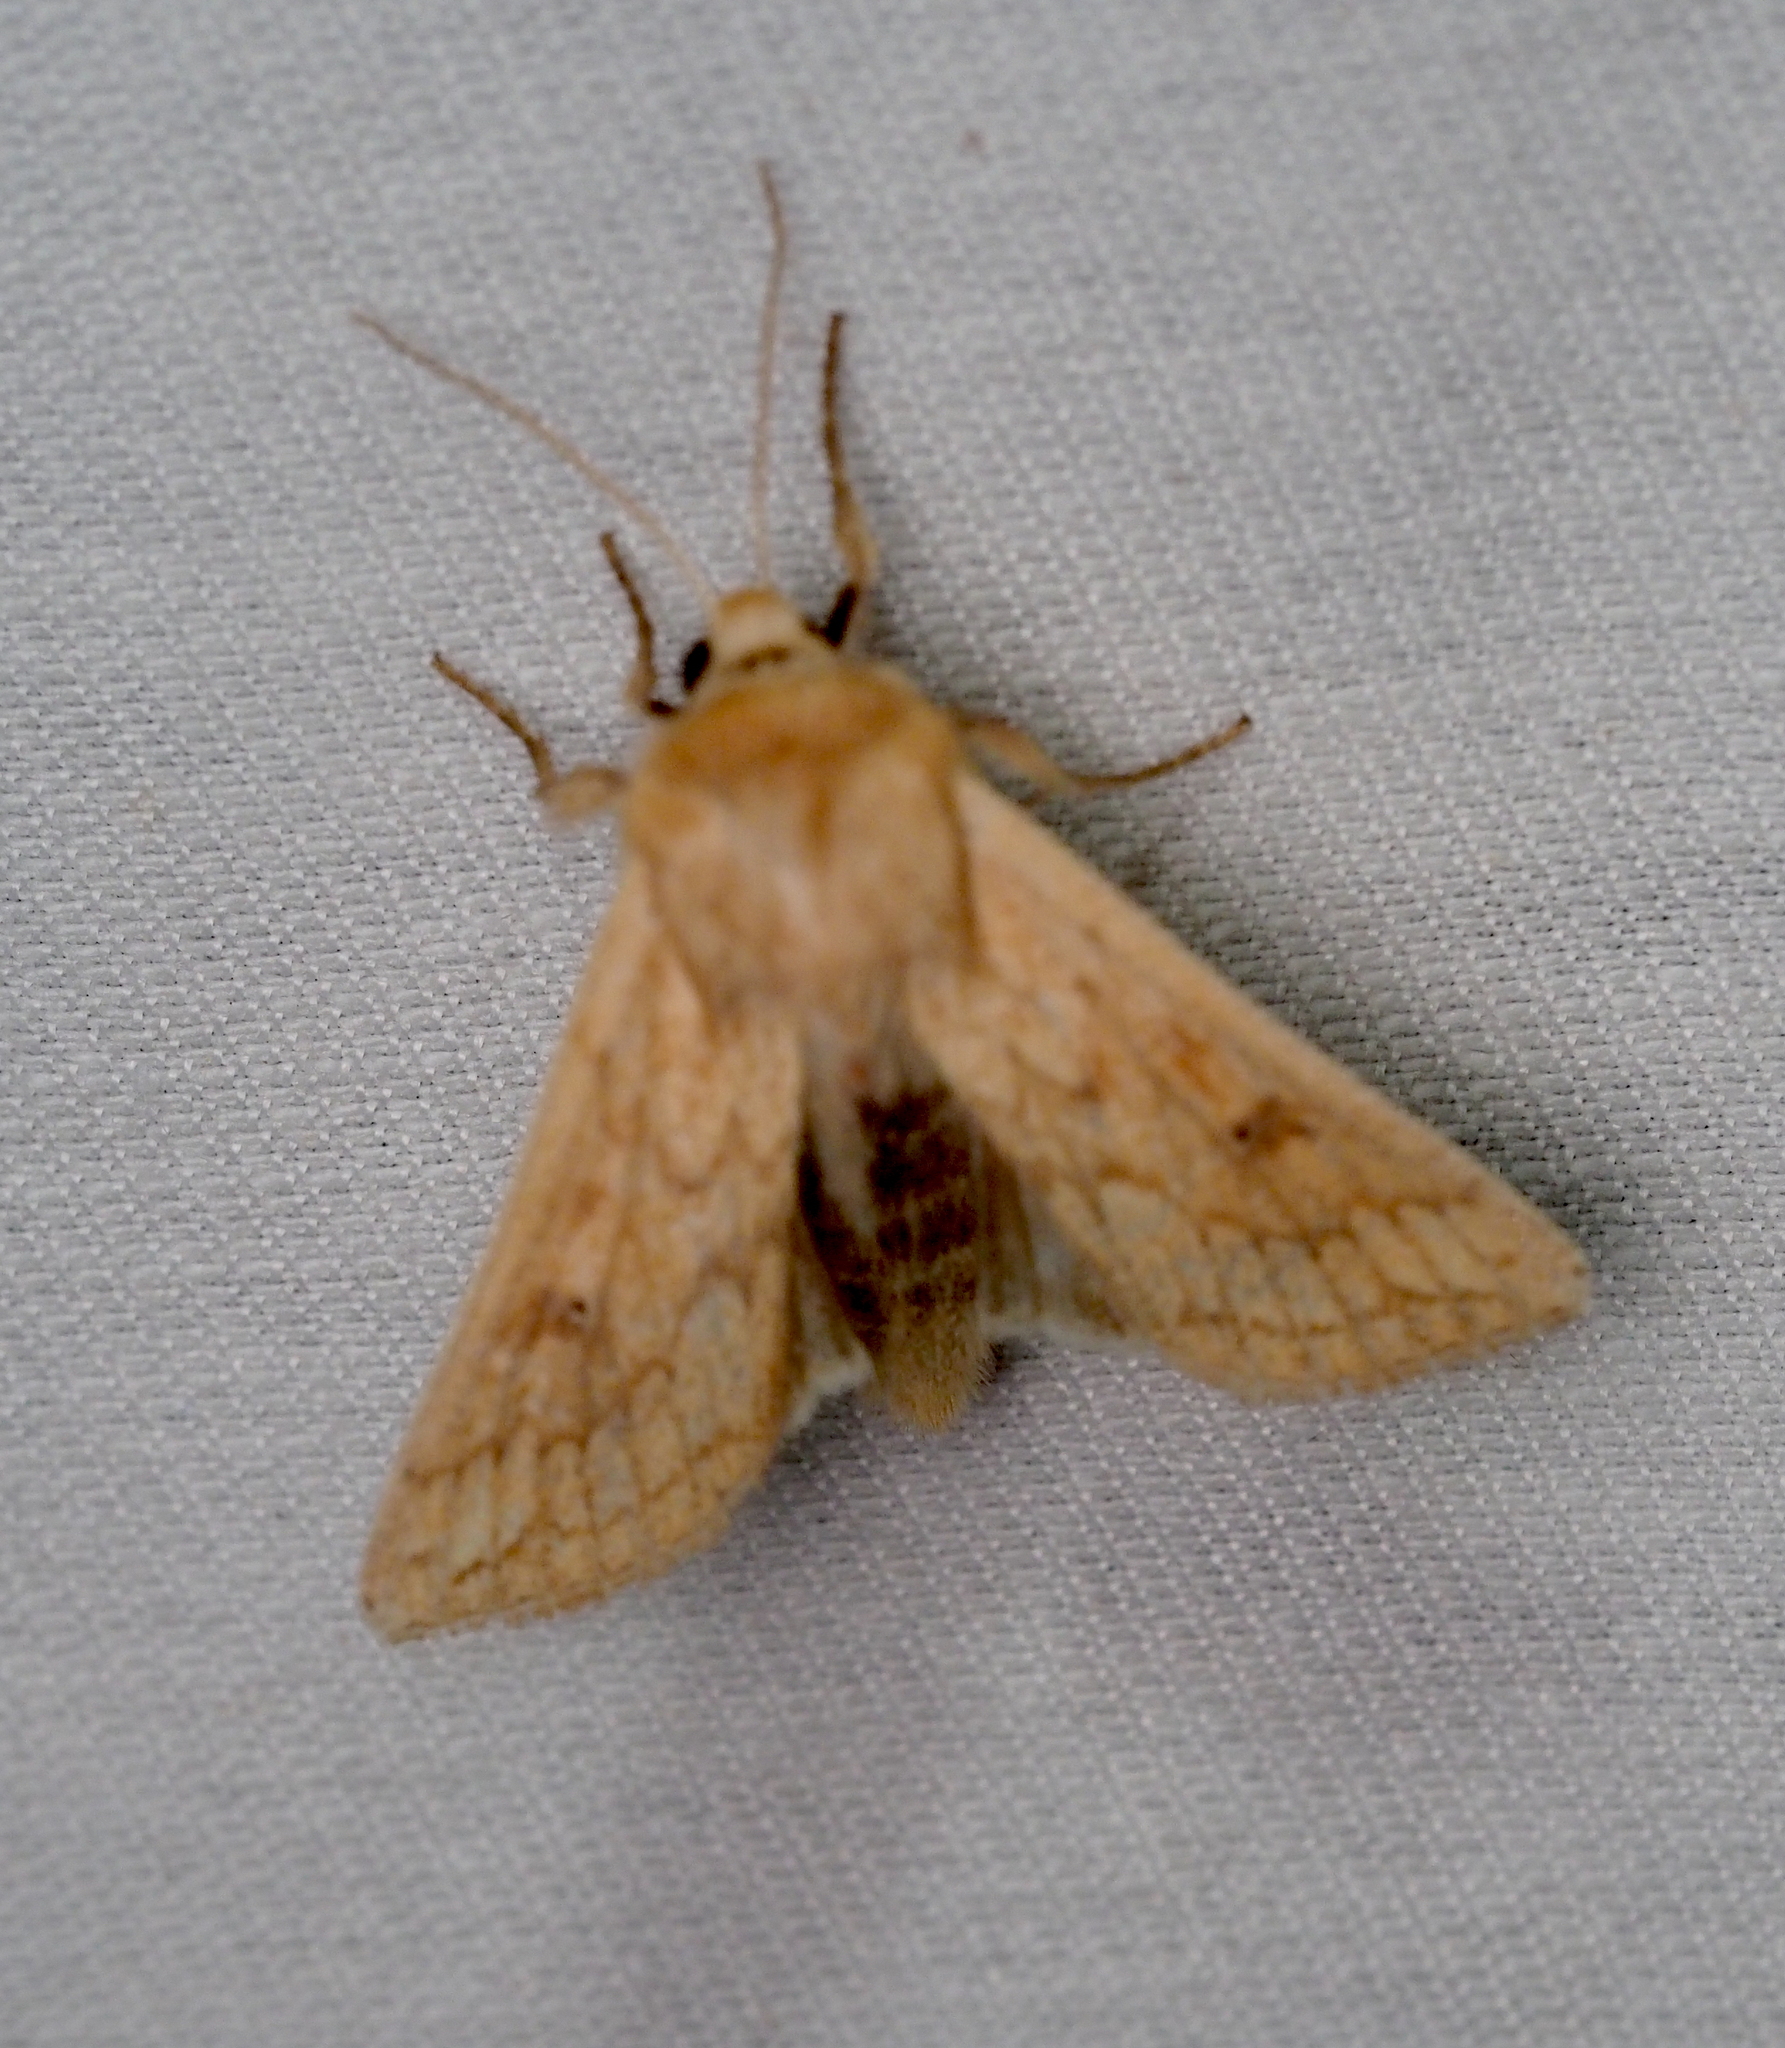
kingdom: Animalia
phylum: Arthropoda
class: Insecta
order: Lepidoptera
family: Noctuidae
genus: Mythimna
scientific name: Mythimna vitellina
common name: Delicate
